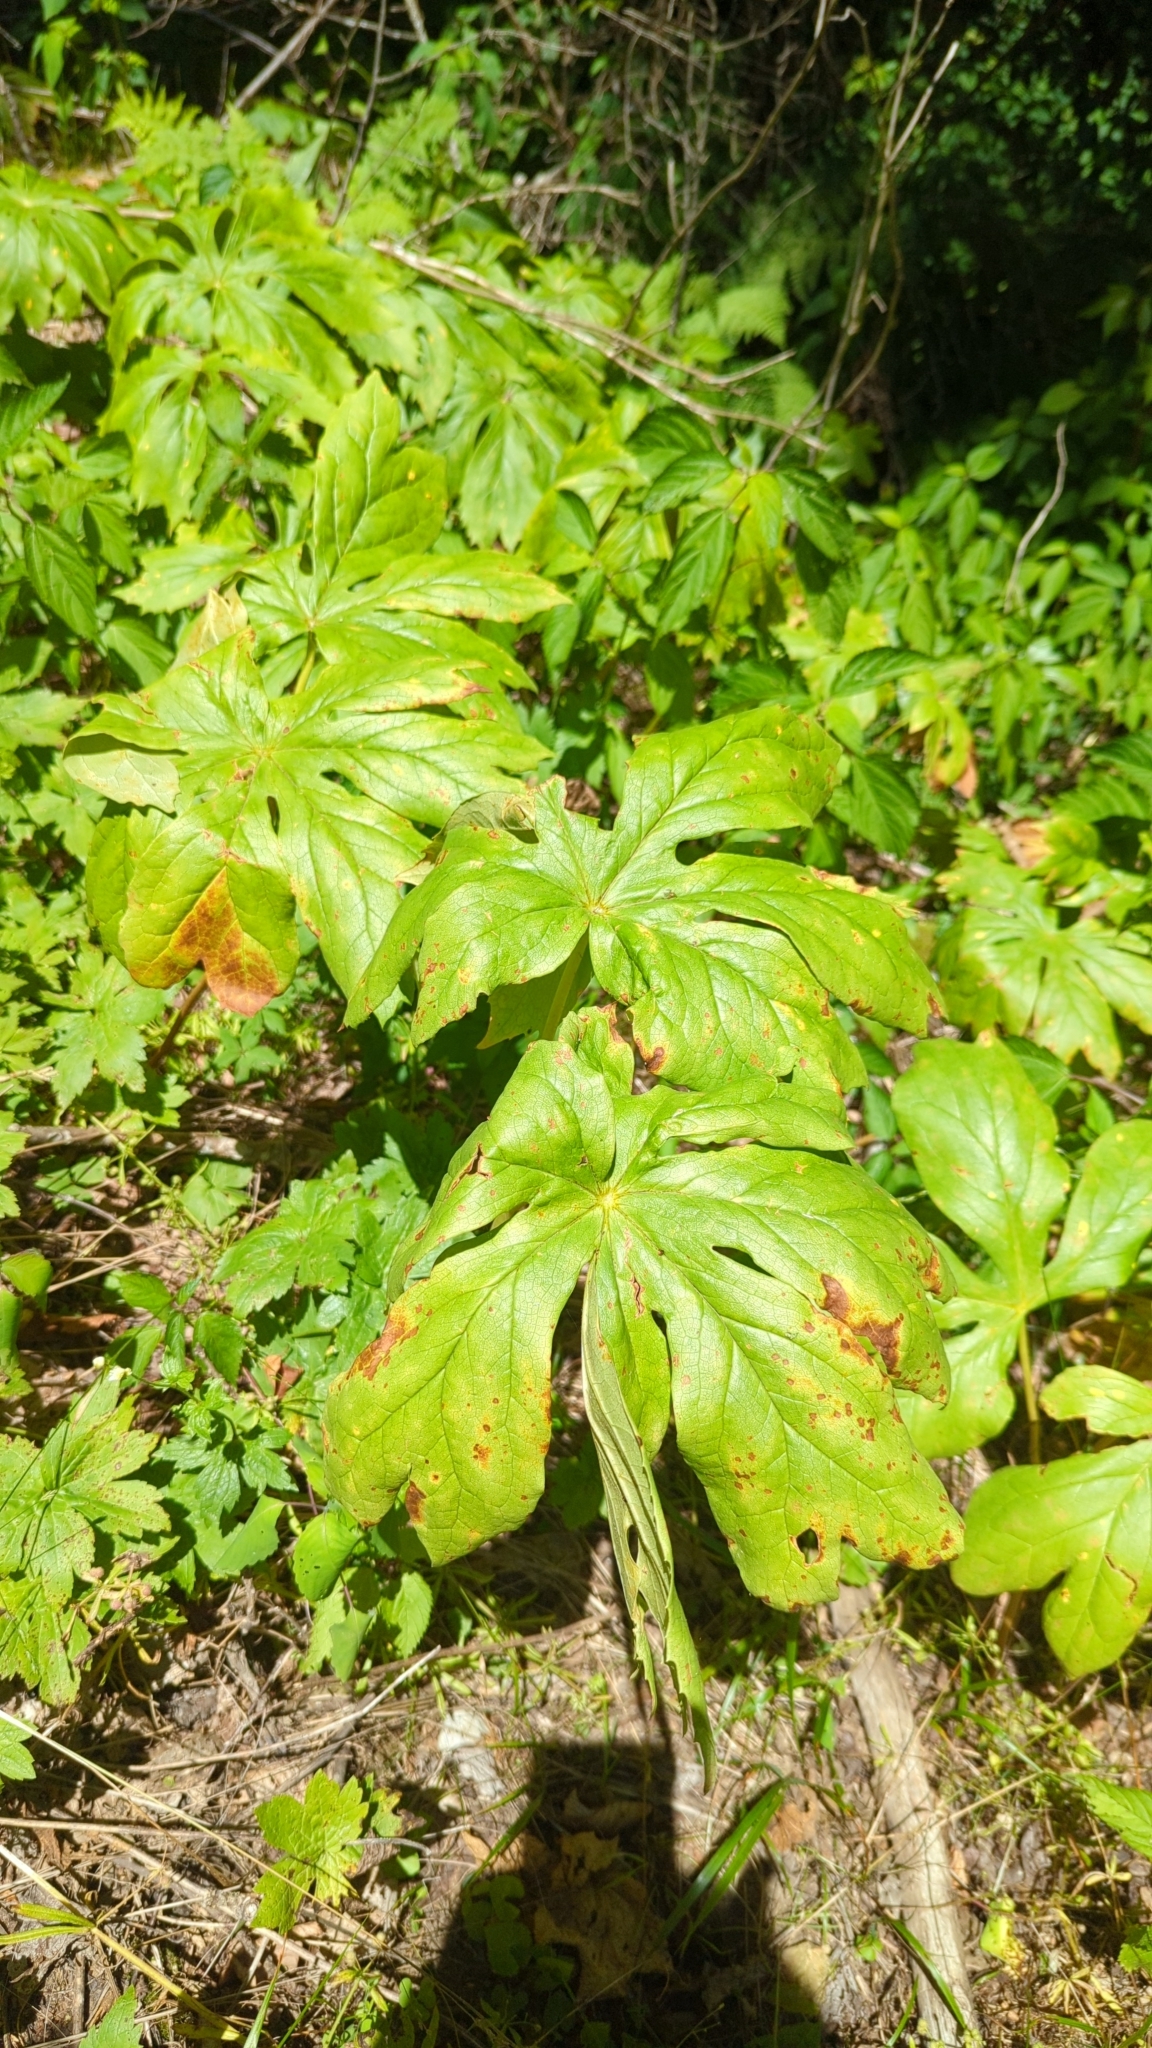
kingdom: Plantae
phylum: Tracheophyta
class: Magnoliopsida
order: Ranunculales
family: Berberidaceae
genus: Podophyllum
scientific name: Podophyllum peltatum
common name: Wild mandrake
